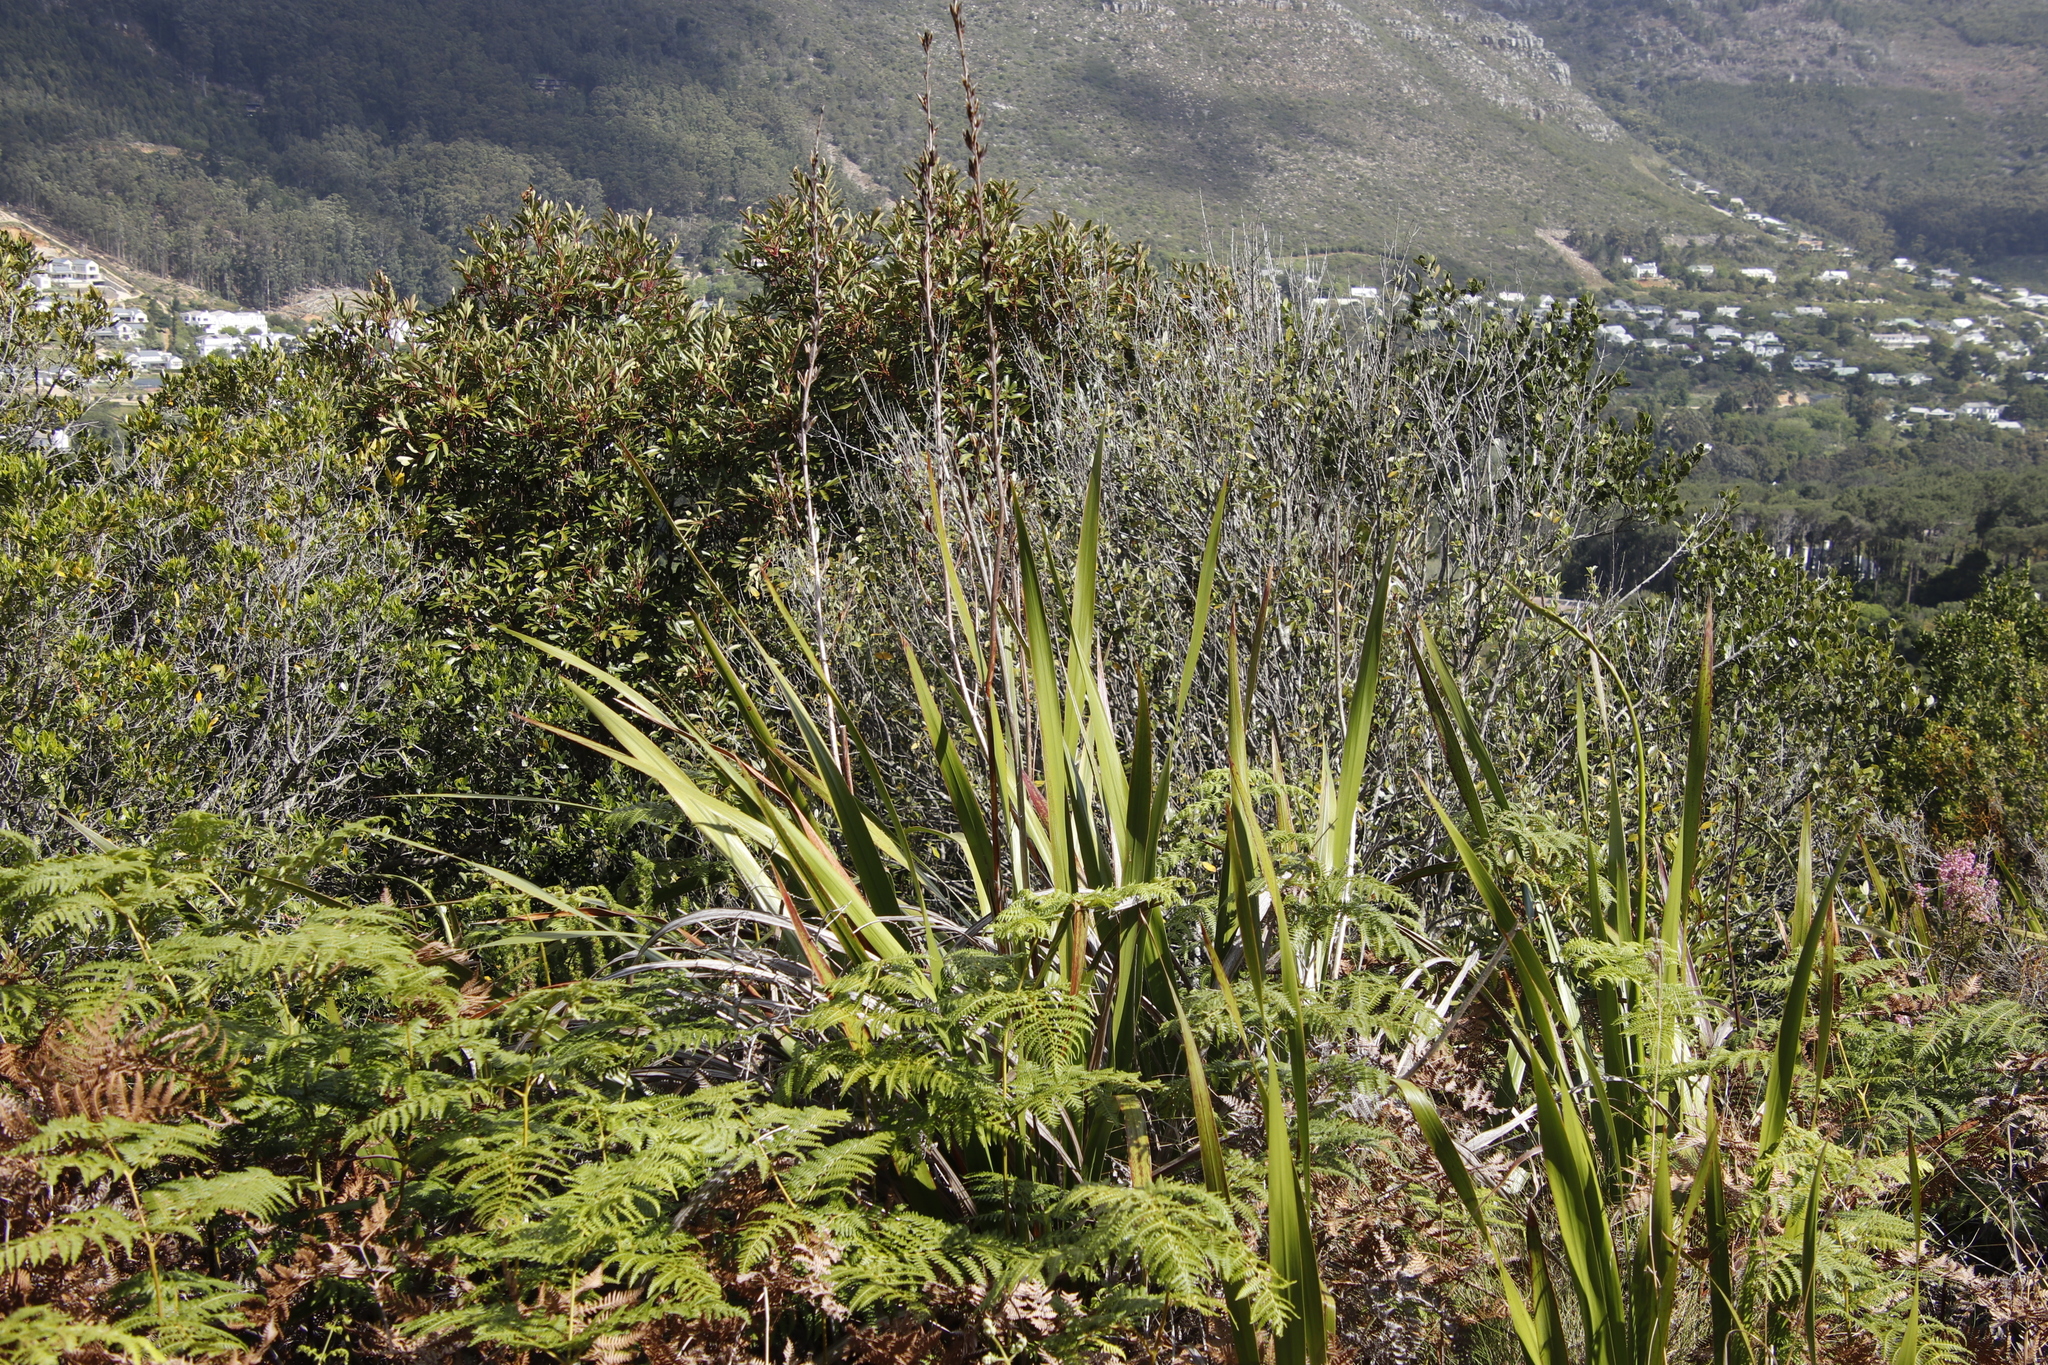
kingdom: Plantae
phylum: Tracheophyta
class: Liliopsida
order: Asparagales
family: Iridaceae
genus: Aristea
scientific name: Aristea capitata
